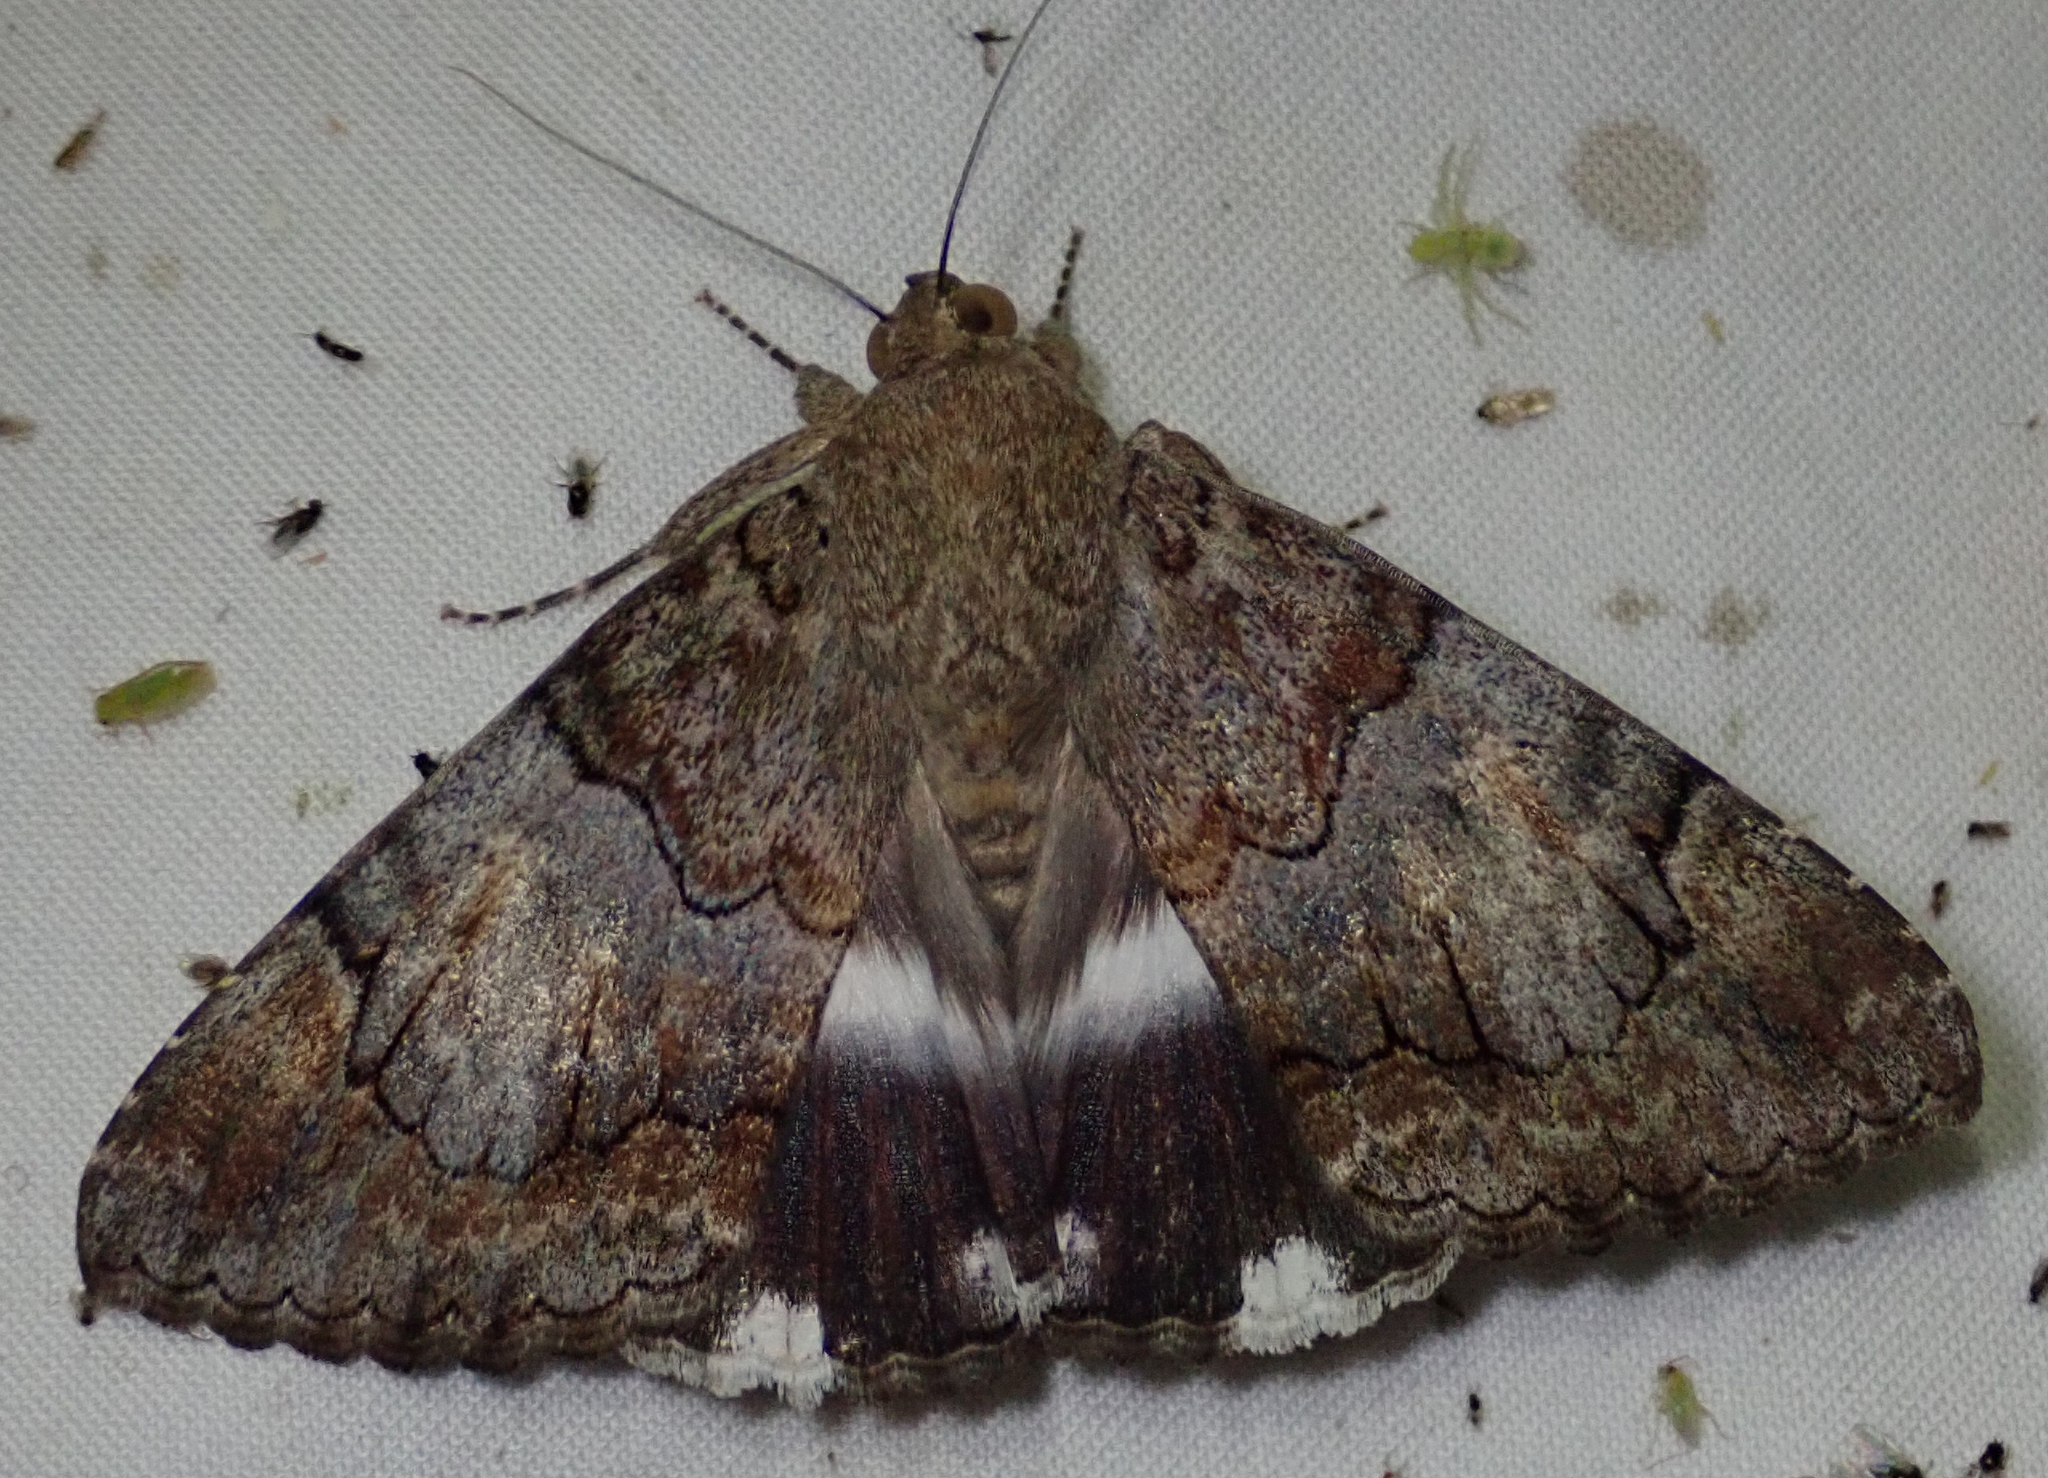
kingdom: Animalia
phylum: Arthropoda
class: Insecta
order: Lepidoptera
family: Erebidae
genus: Achaea
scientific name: Achaea catella
